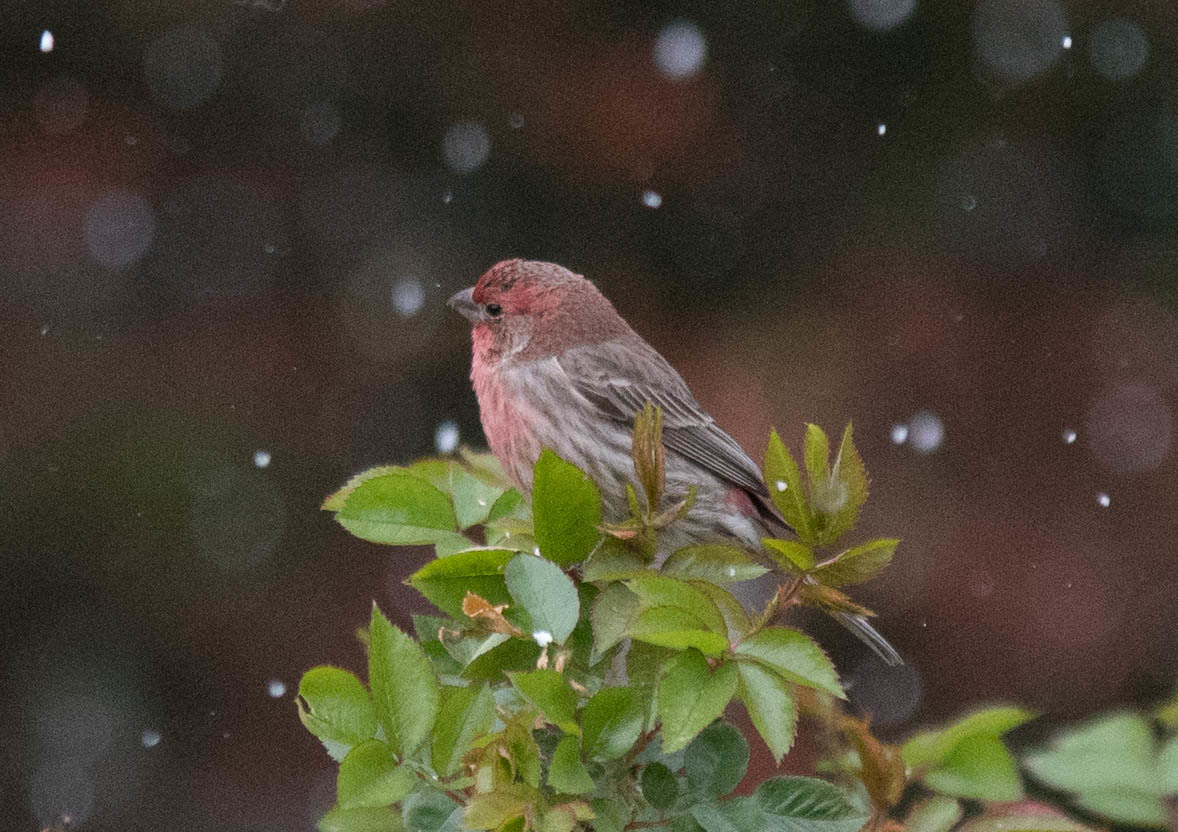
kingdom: Animalia
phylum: Chordata
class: Aves
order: Passeriformes
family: Fringillidae
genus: Haemorhous
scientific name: Haemorhous mexicanus
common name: House finch
